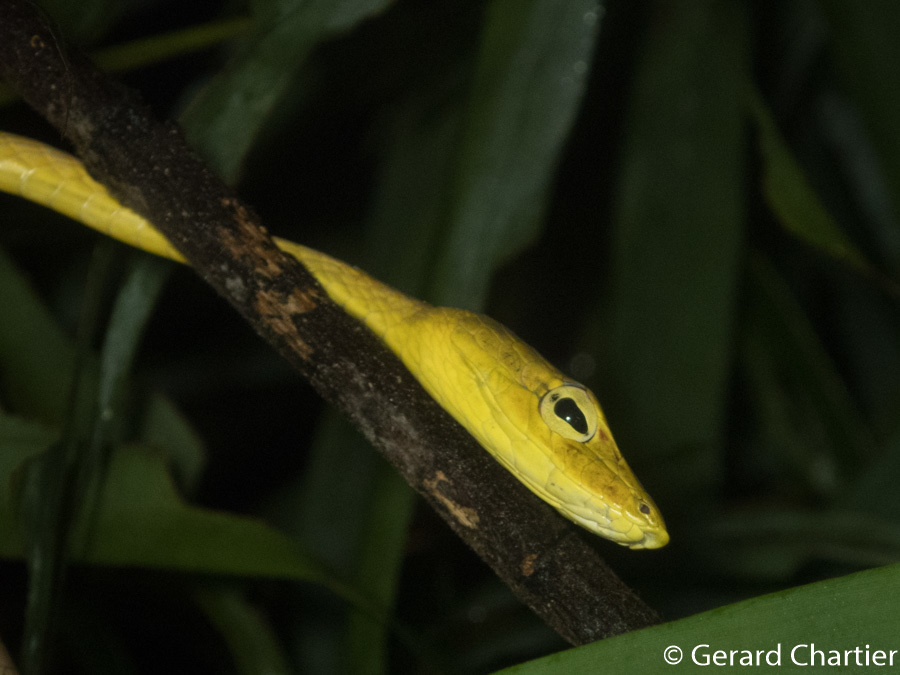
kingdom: Animalia
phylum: Chordata
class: Squamata
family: Colubridae
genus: Ahaetulla
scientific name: Ahaetulla prasina
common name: Oriental whip snake
